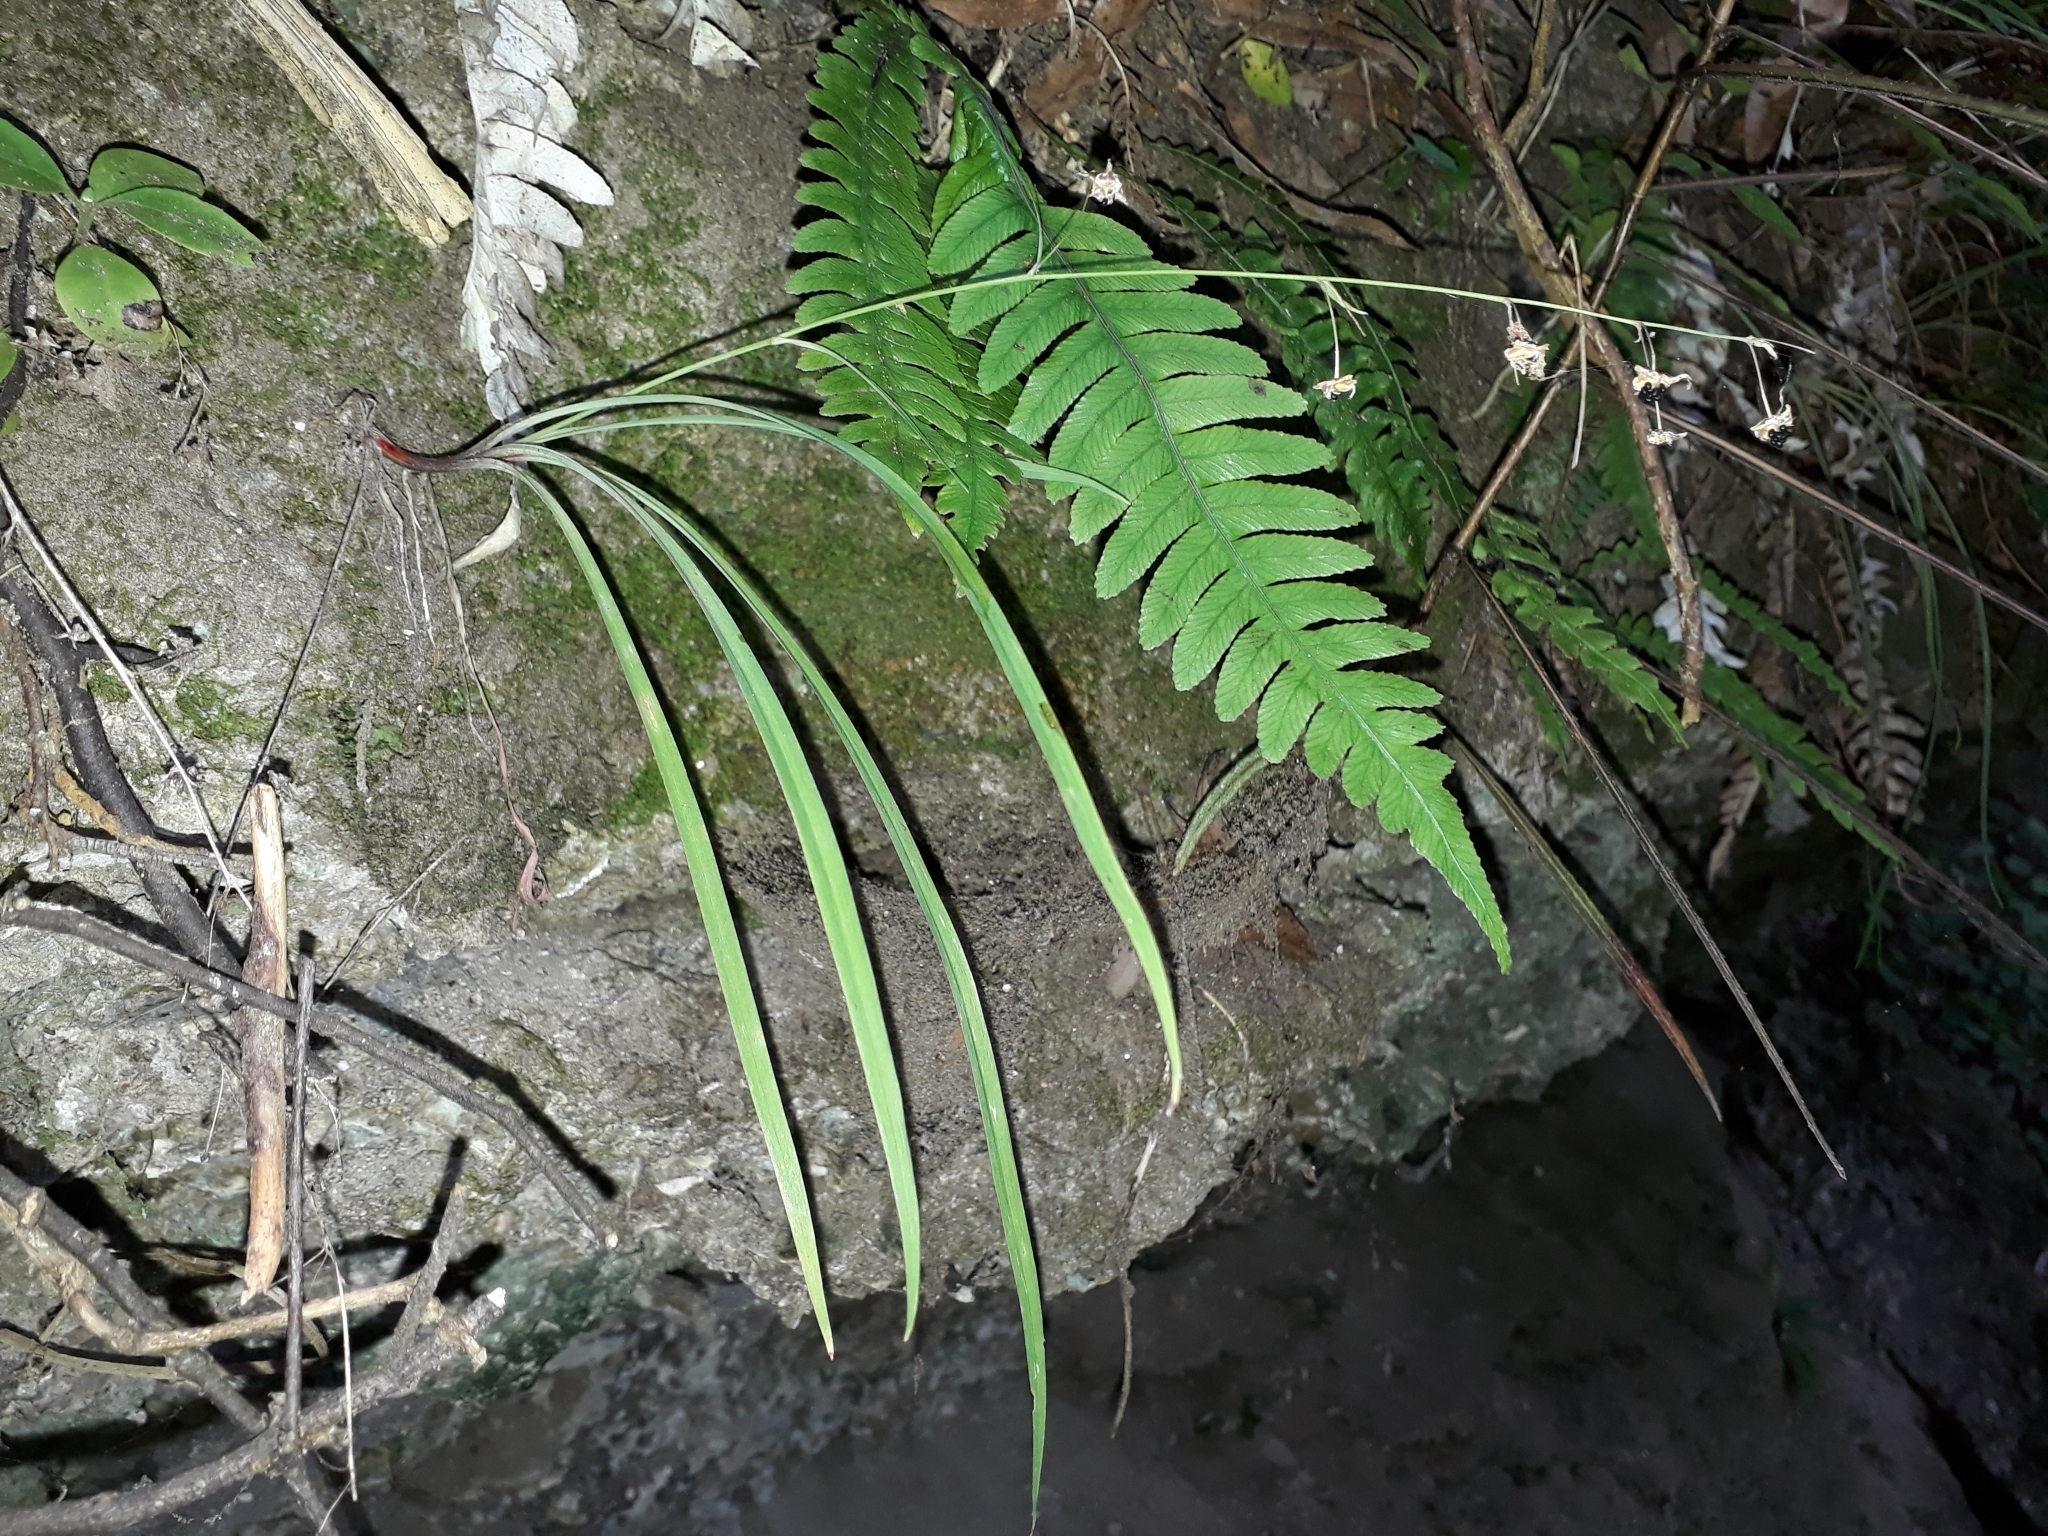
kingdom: Plantae
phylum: Tracheophyta
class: Liliopsida
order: Asparagales
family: Asparagaceae
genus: Arthropodium
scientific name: Arthropodium candidum
